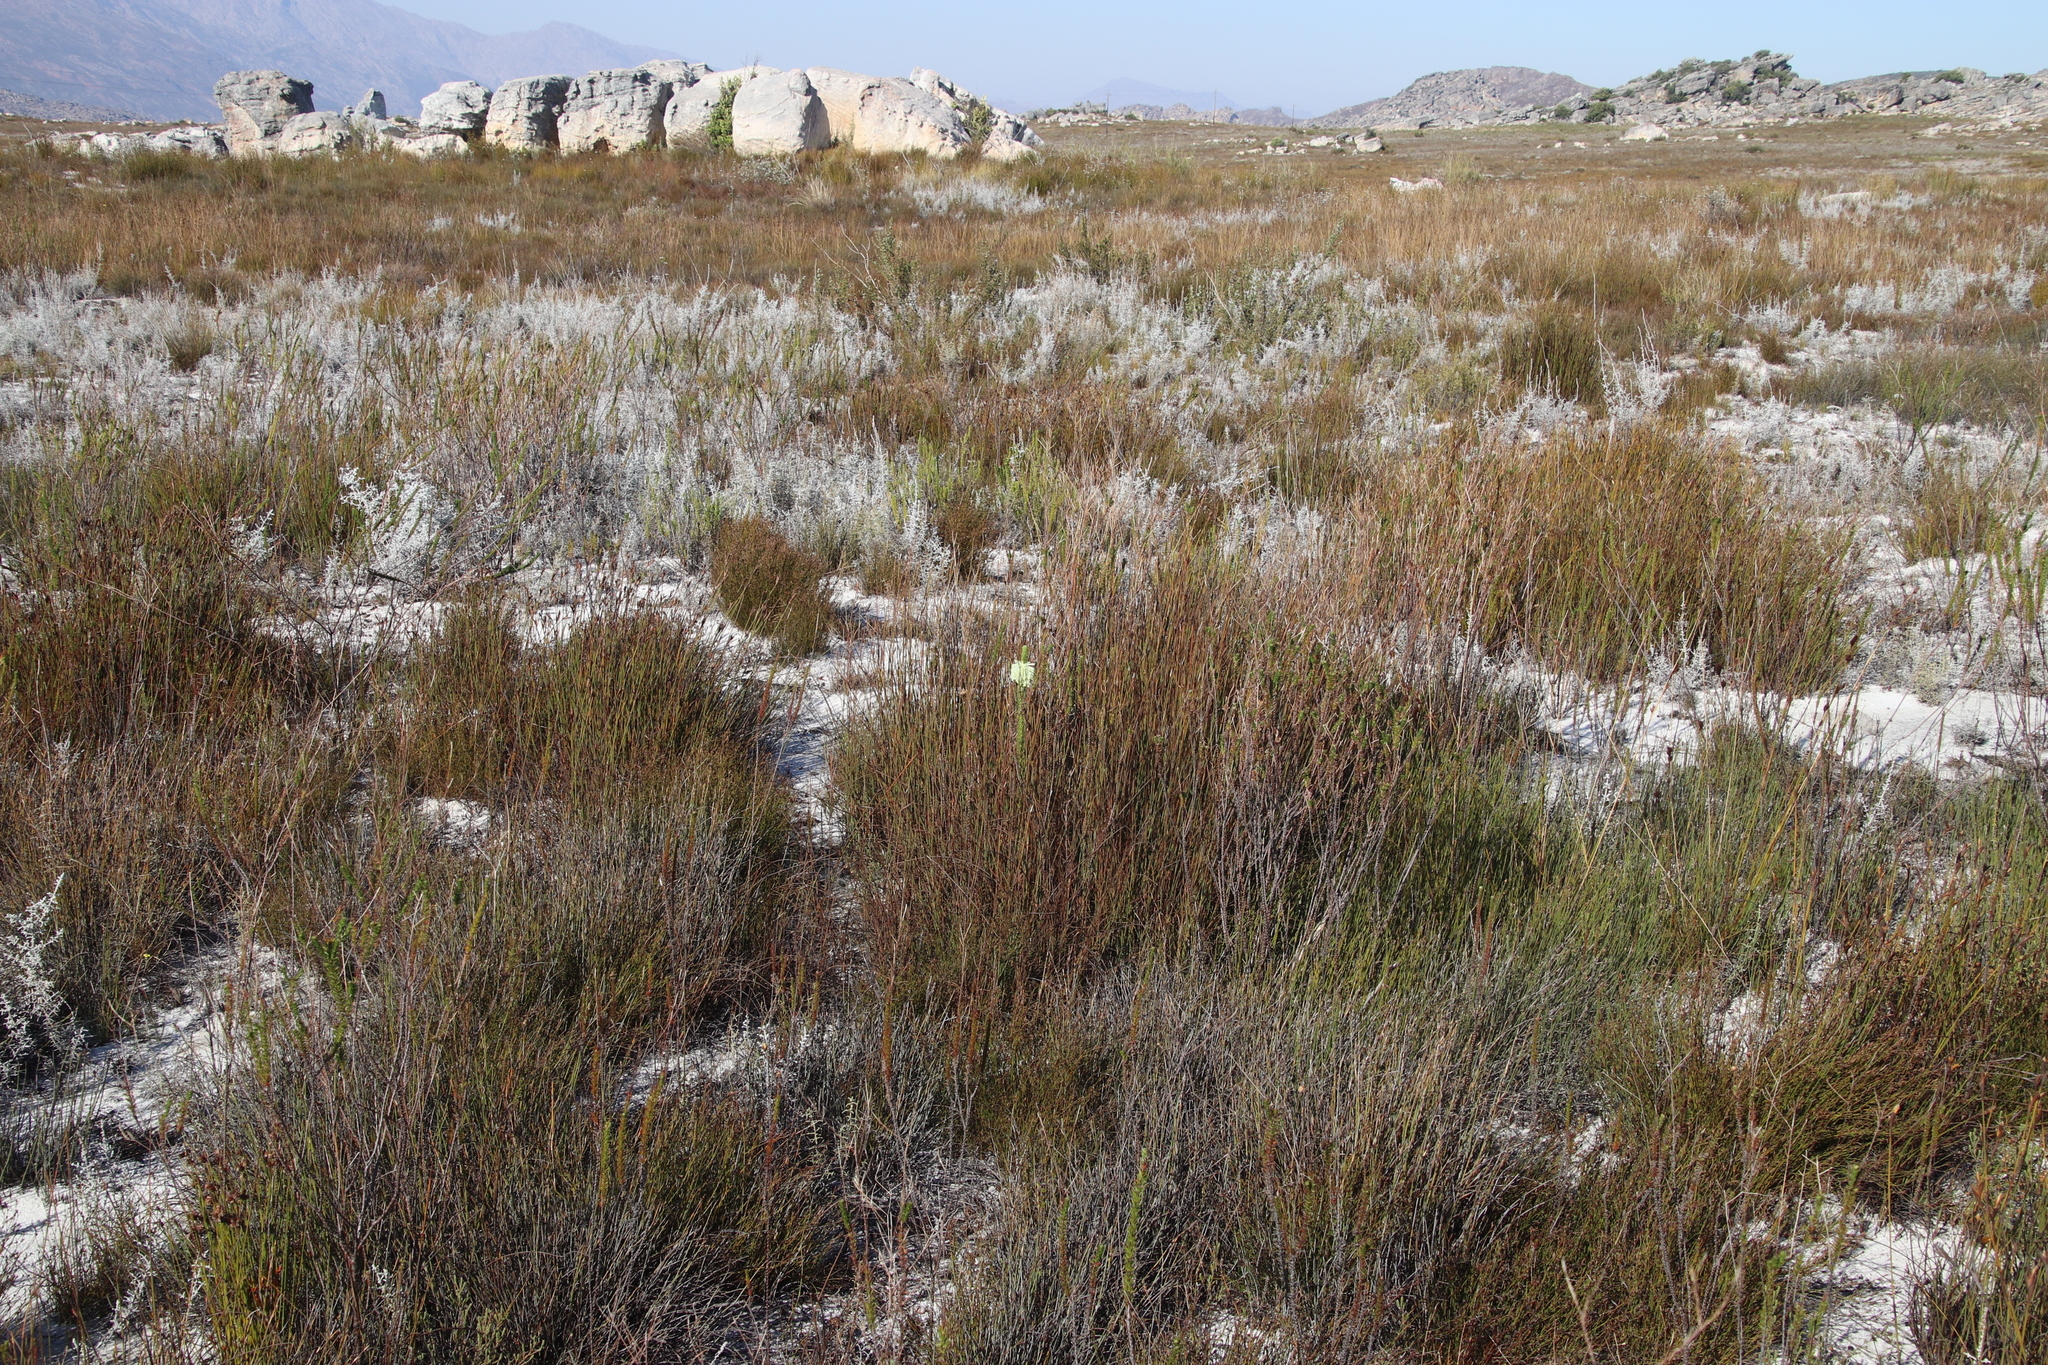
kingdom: Plantae
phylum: Tracheophyta
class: Magnoliopsida
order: Ericales
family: Ericaceae
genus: Erica
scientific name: Erica sessiliflora
